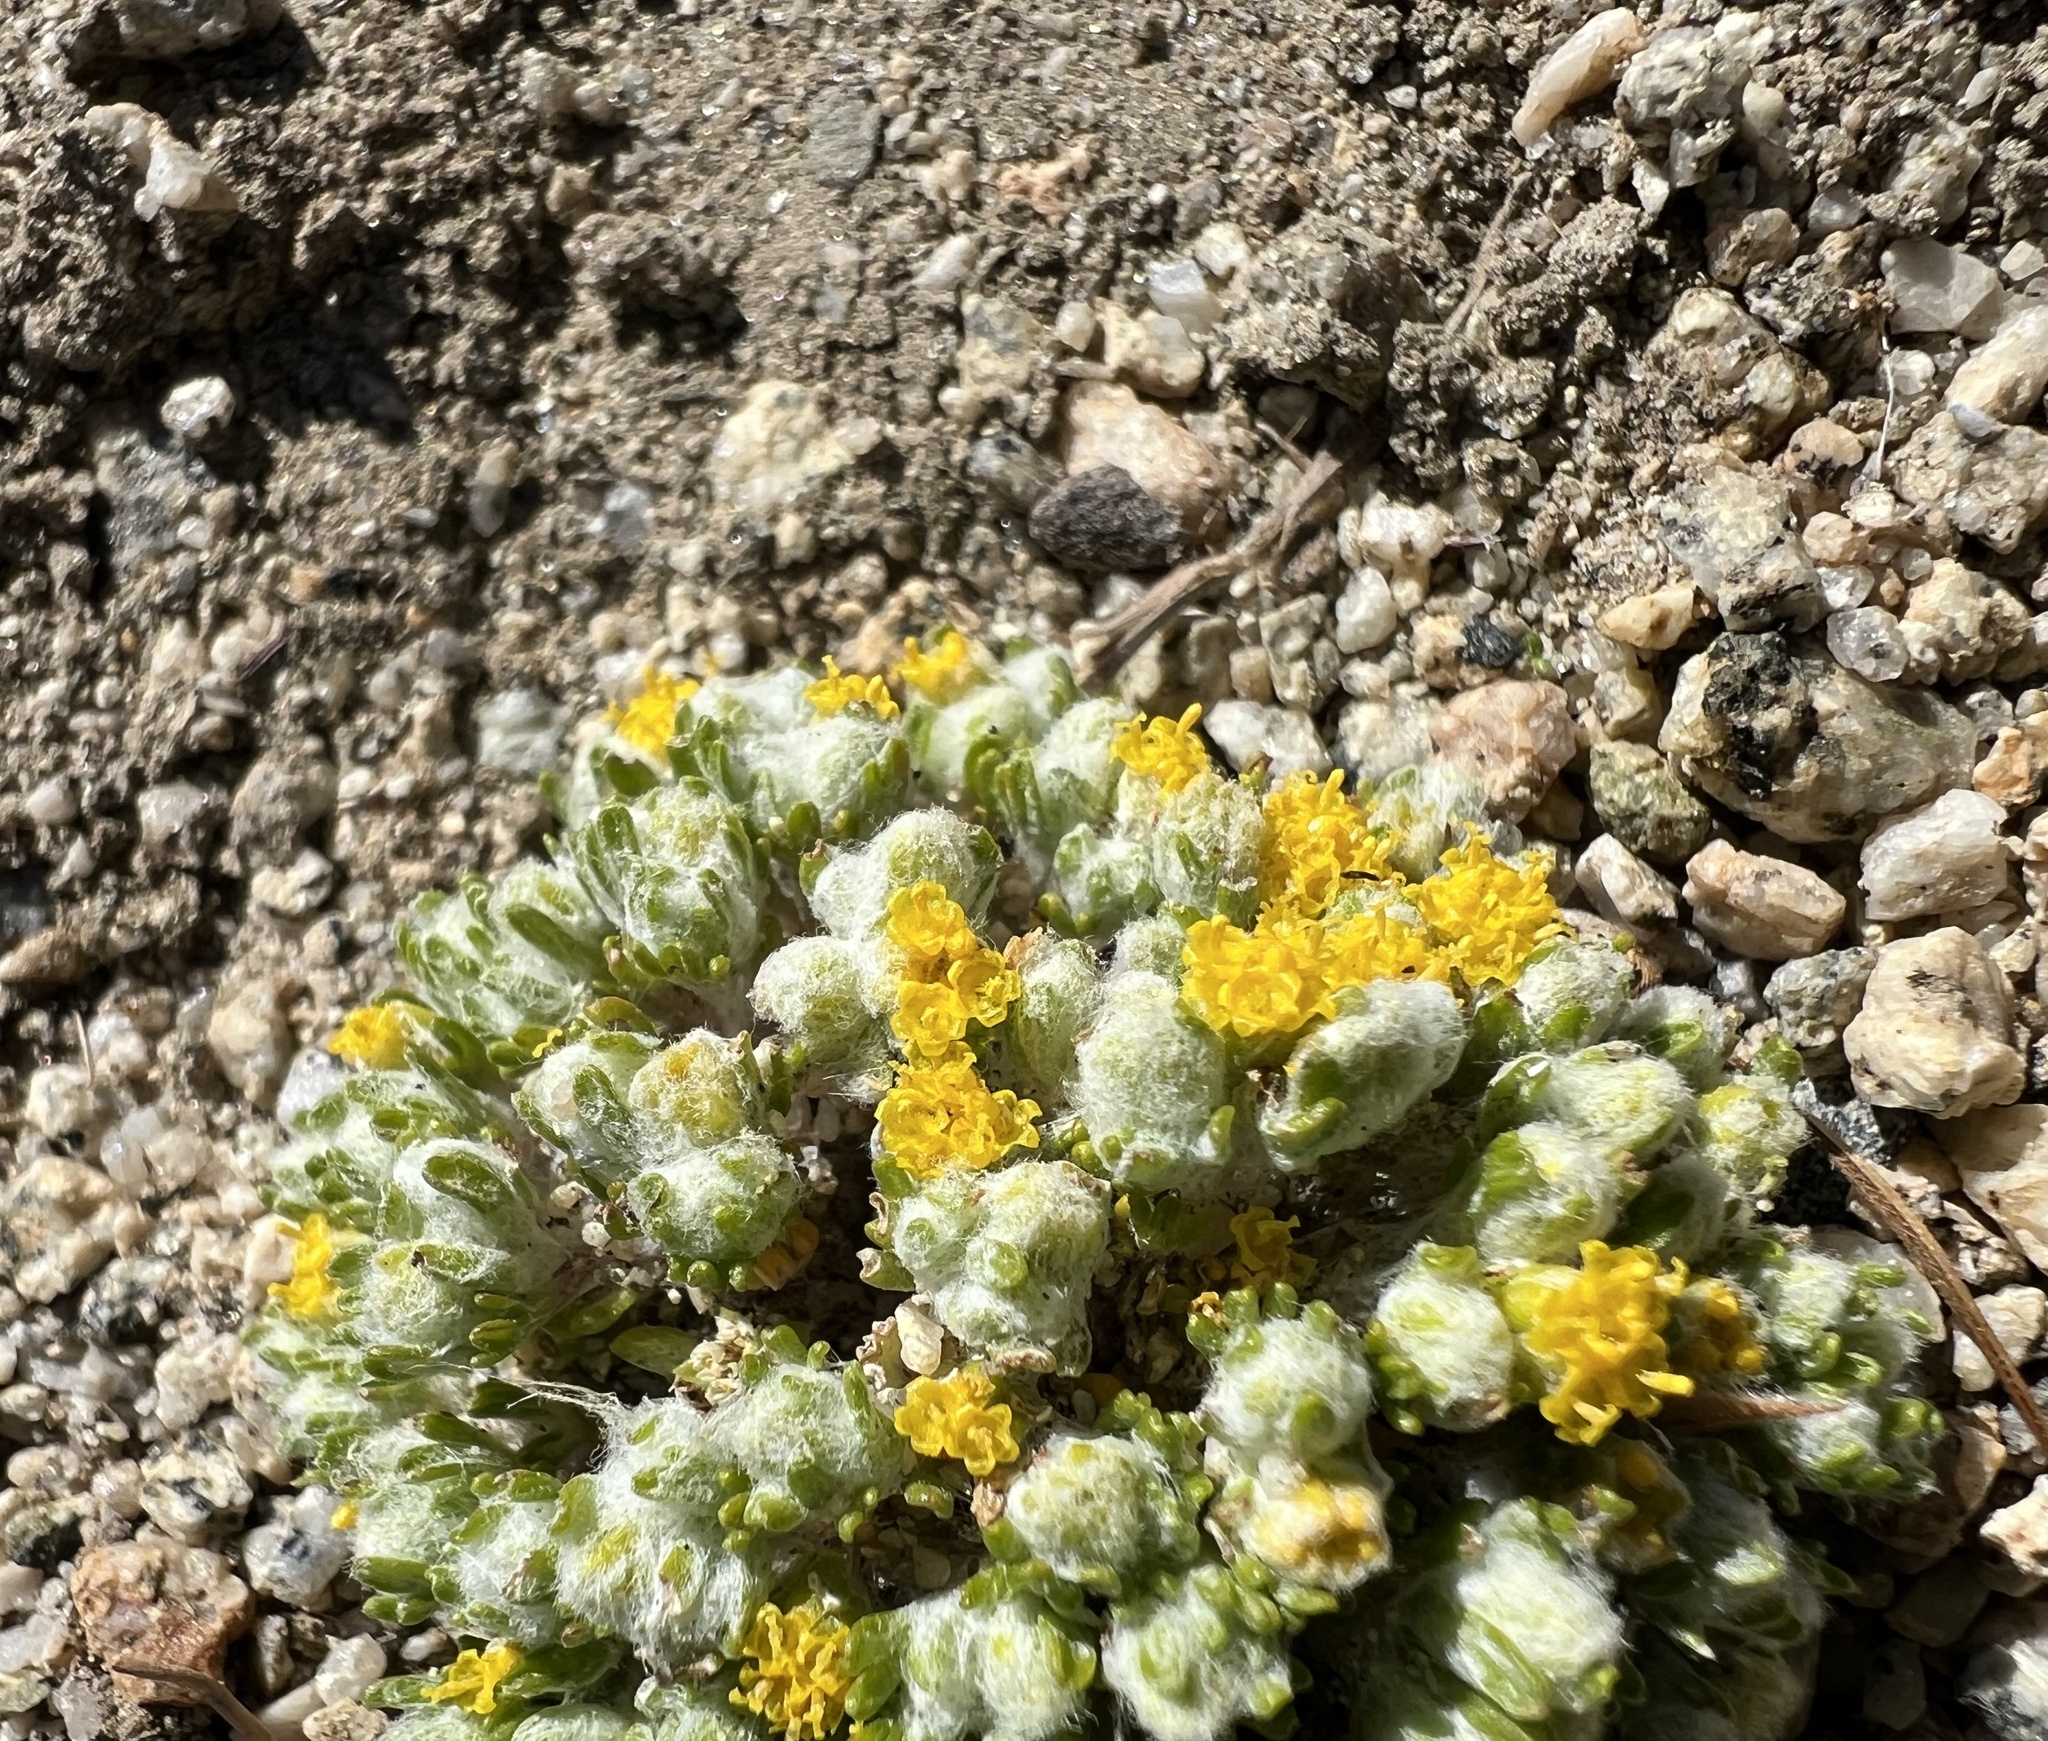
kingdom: Plantae
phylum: Tracheophyta
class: Magnoliopsida
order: Asterales
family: Asteraceae
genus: Eriophyllum
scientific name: Eriophyllum pringlei
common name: Pringle's woolly-sunflower
